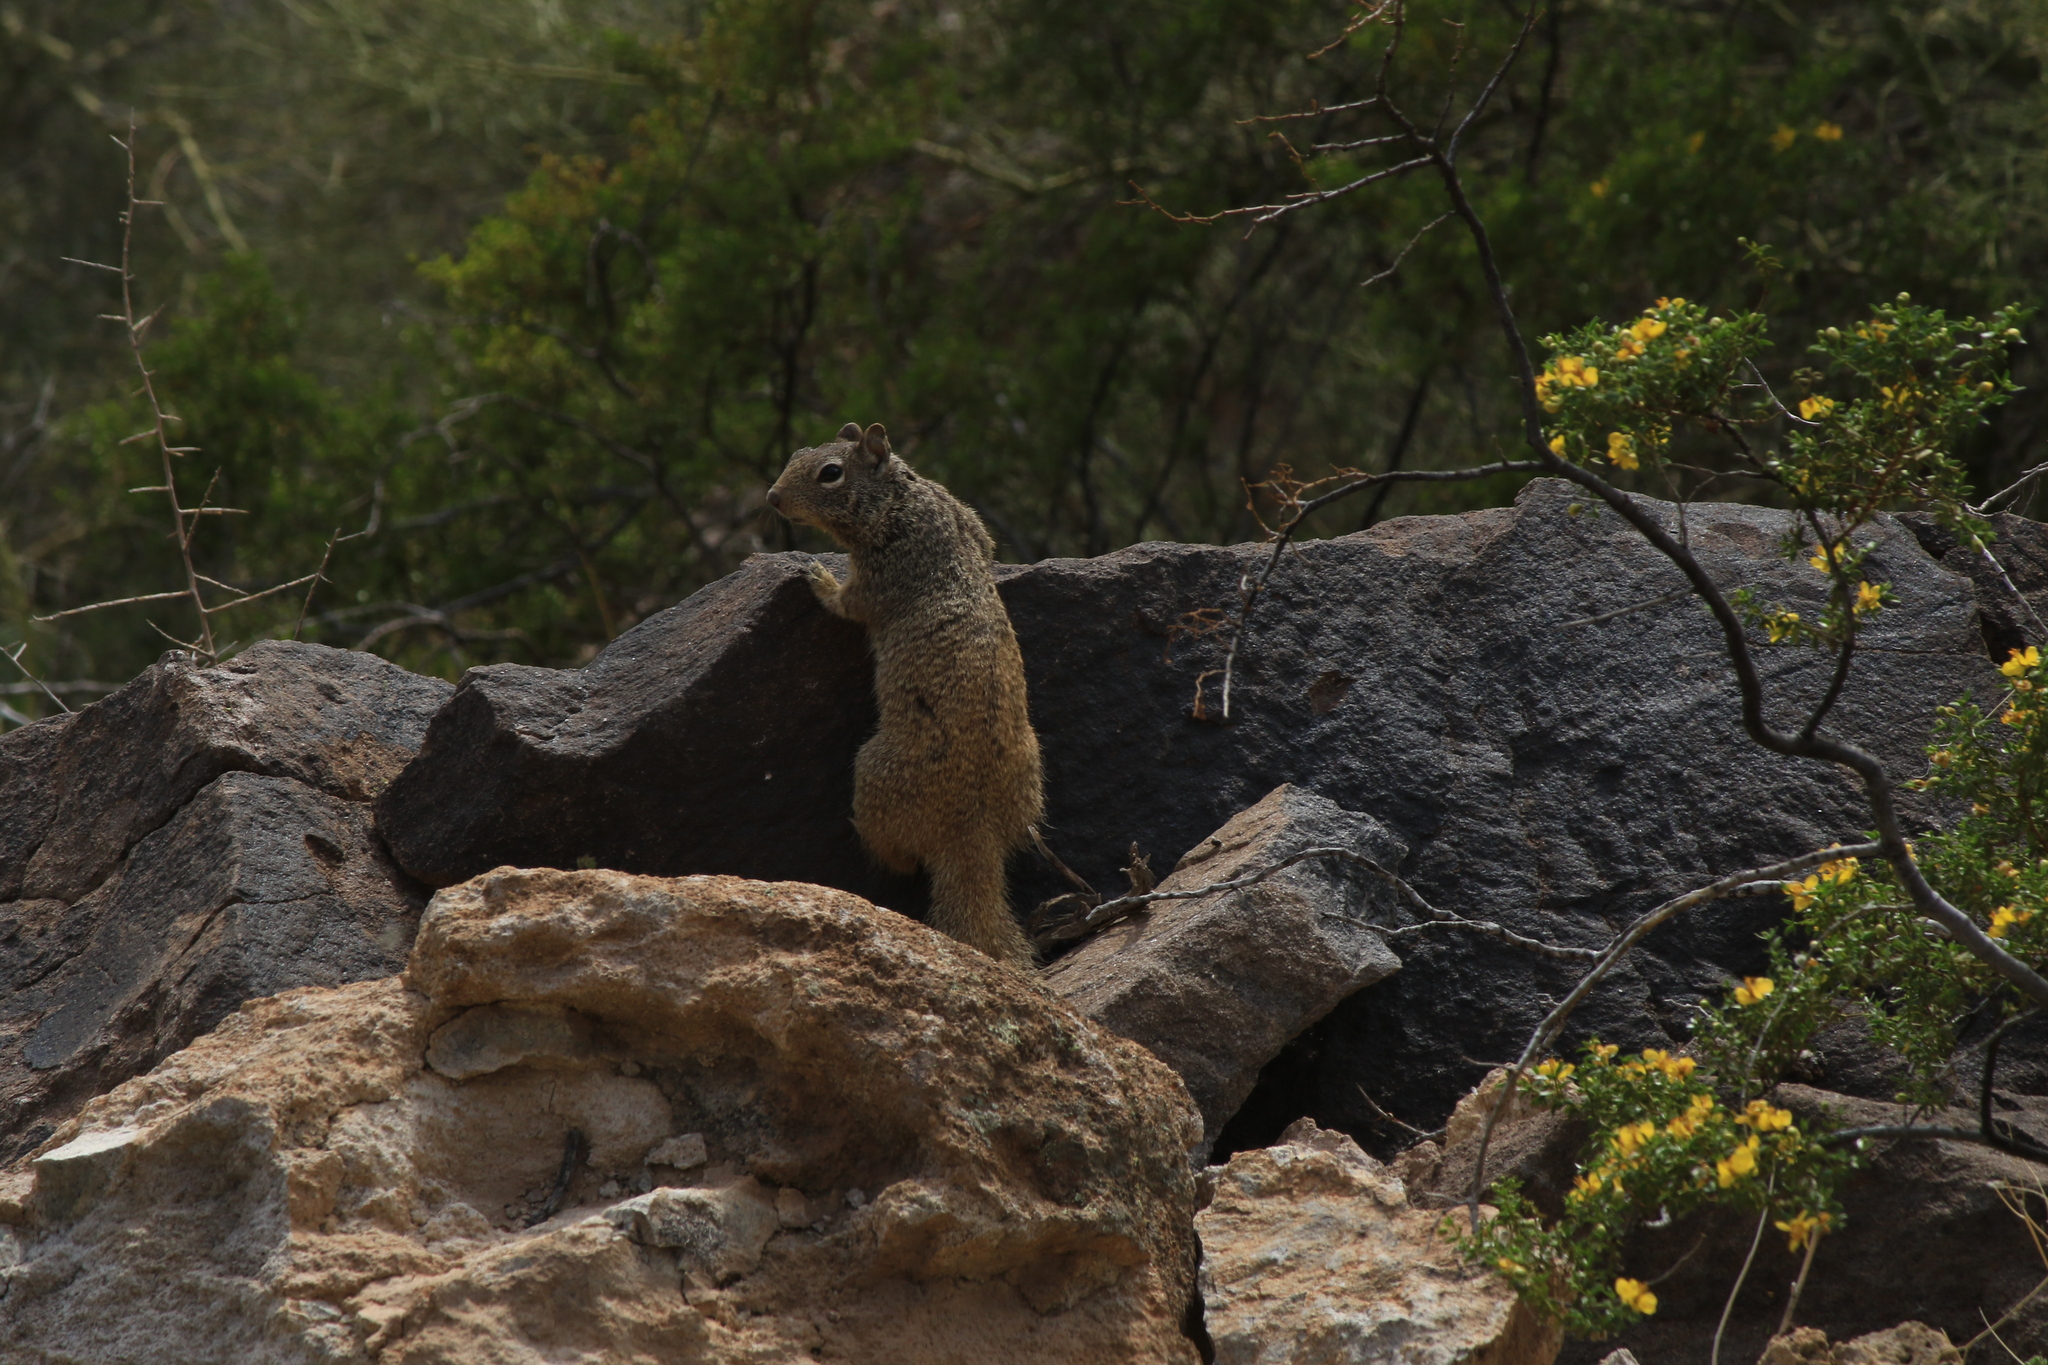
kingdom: Animalia
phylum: Chordata
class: Mammalia
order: Rodentia
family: Sciuridae
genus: Otospermophilus
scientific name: Otospermophilus variegatus
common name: Rock squirrel
